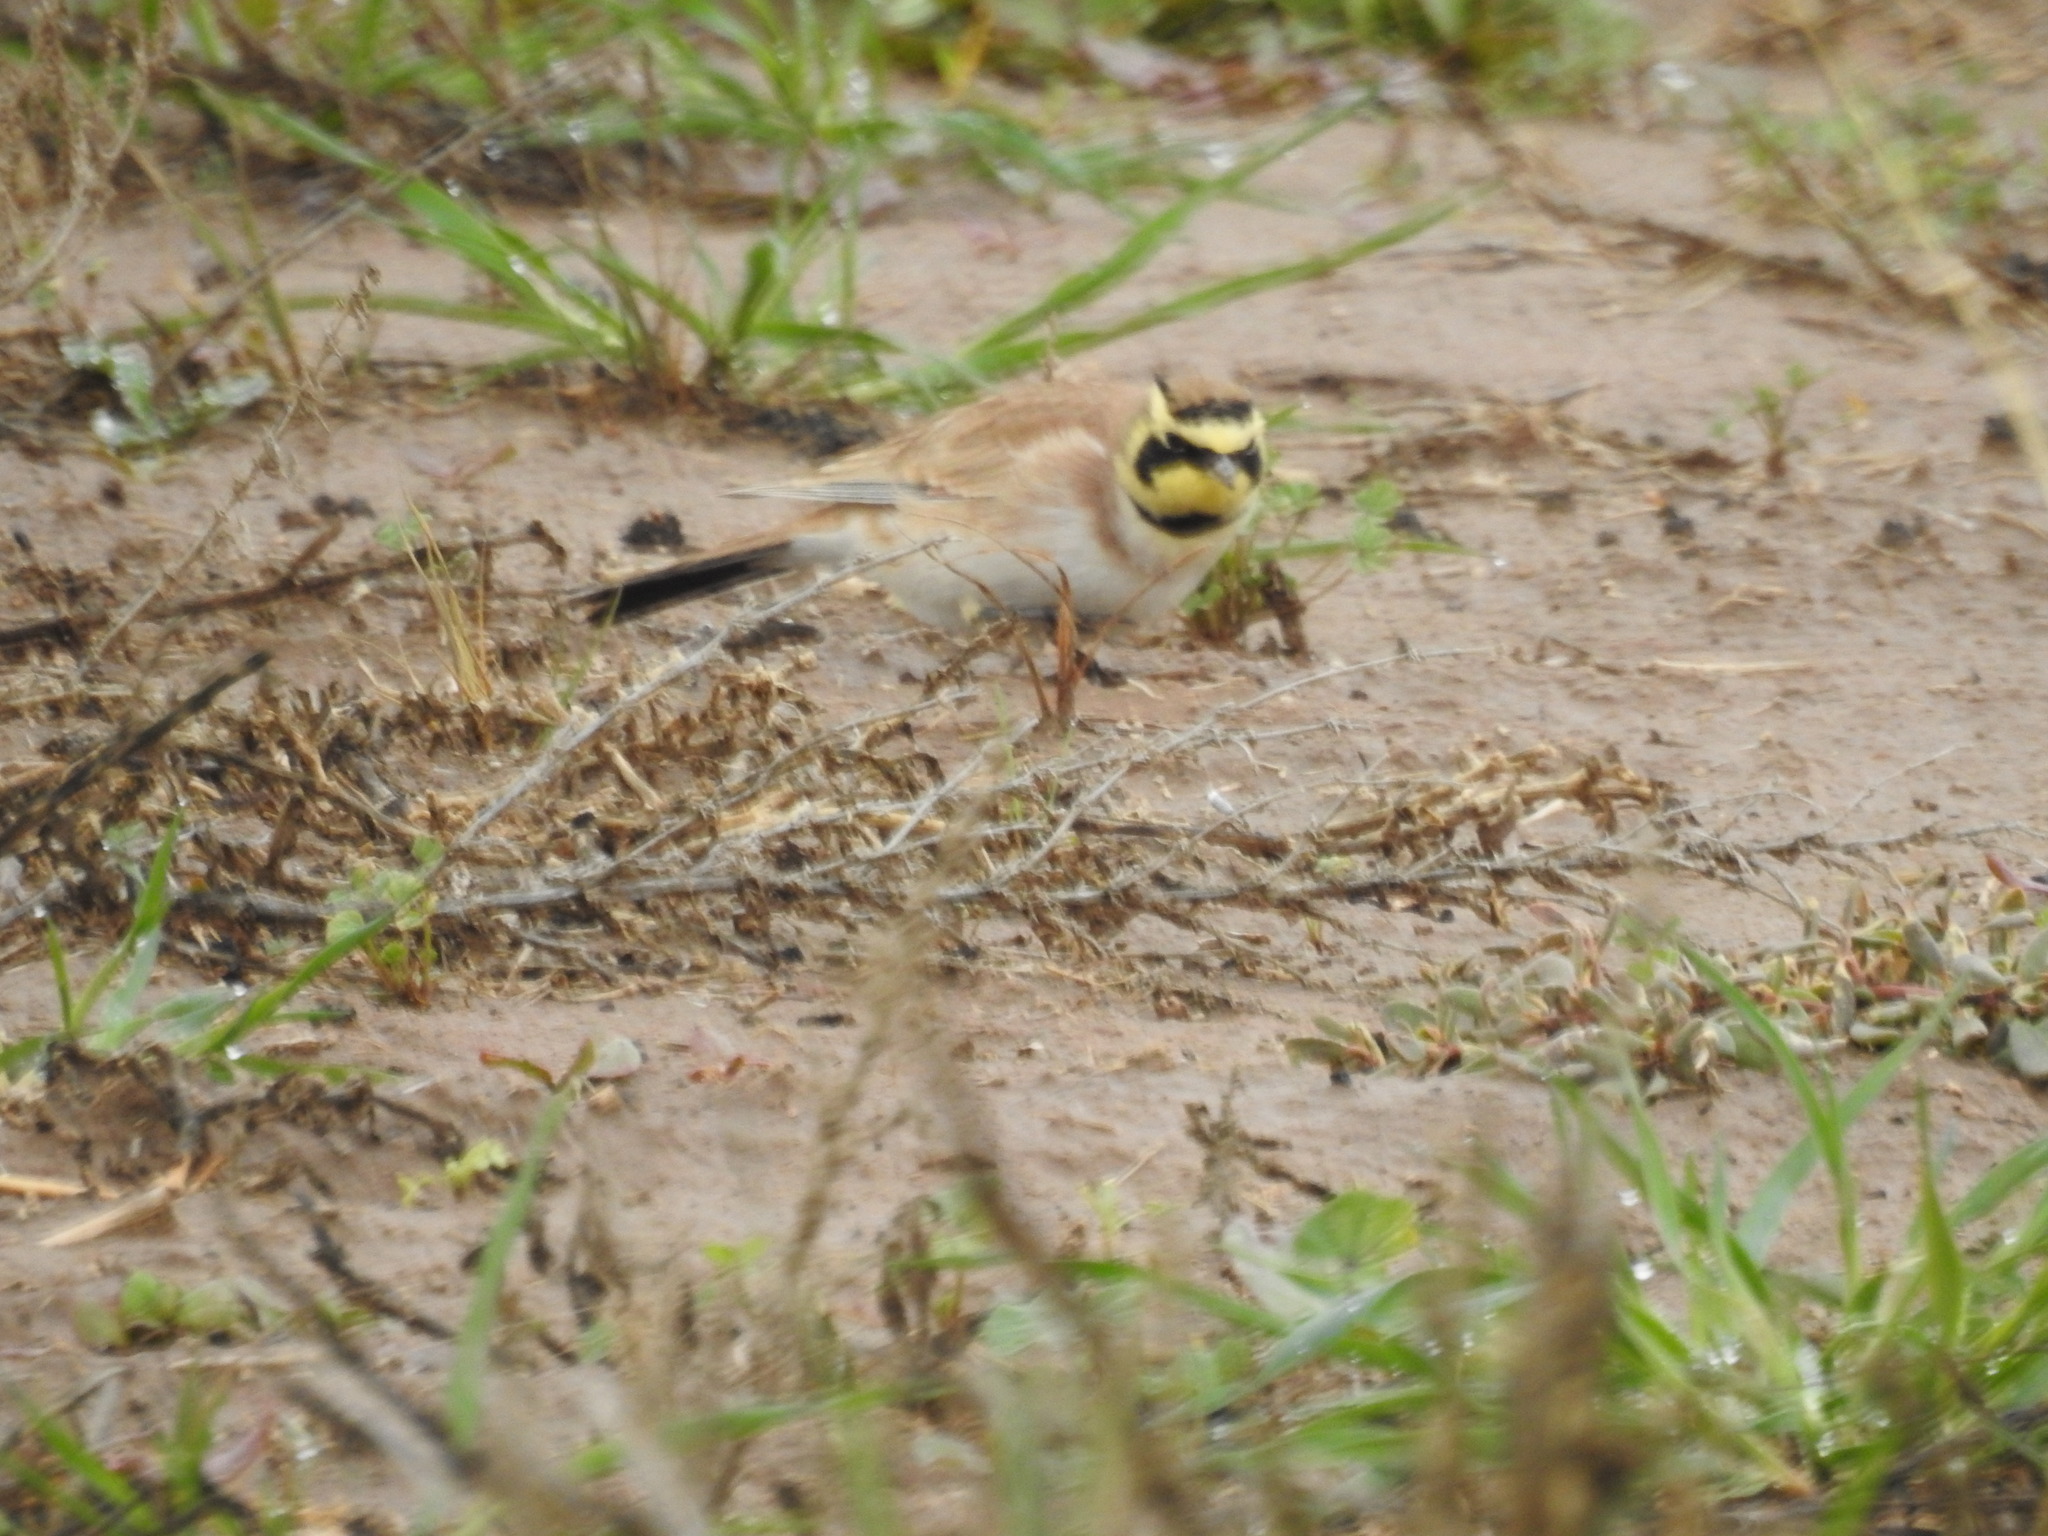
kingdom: Animalia
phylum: Chordata
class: Aves
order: Passeriformes
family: Alaudidae
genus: Eremophila
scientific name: Eremophila alpestris
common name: Horned lark
